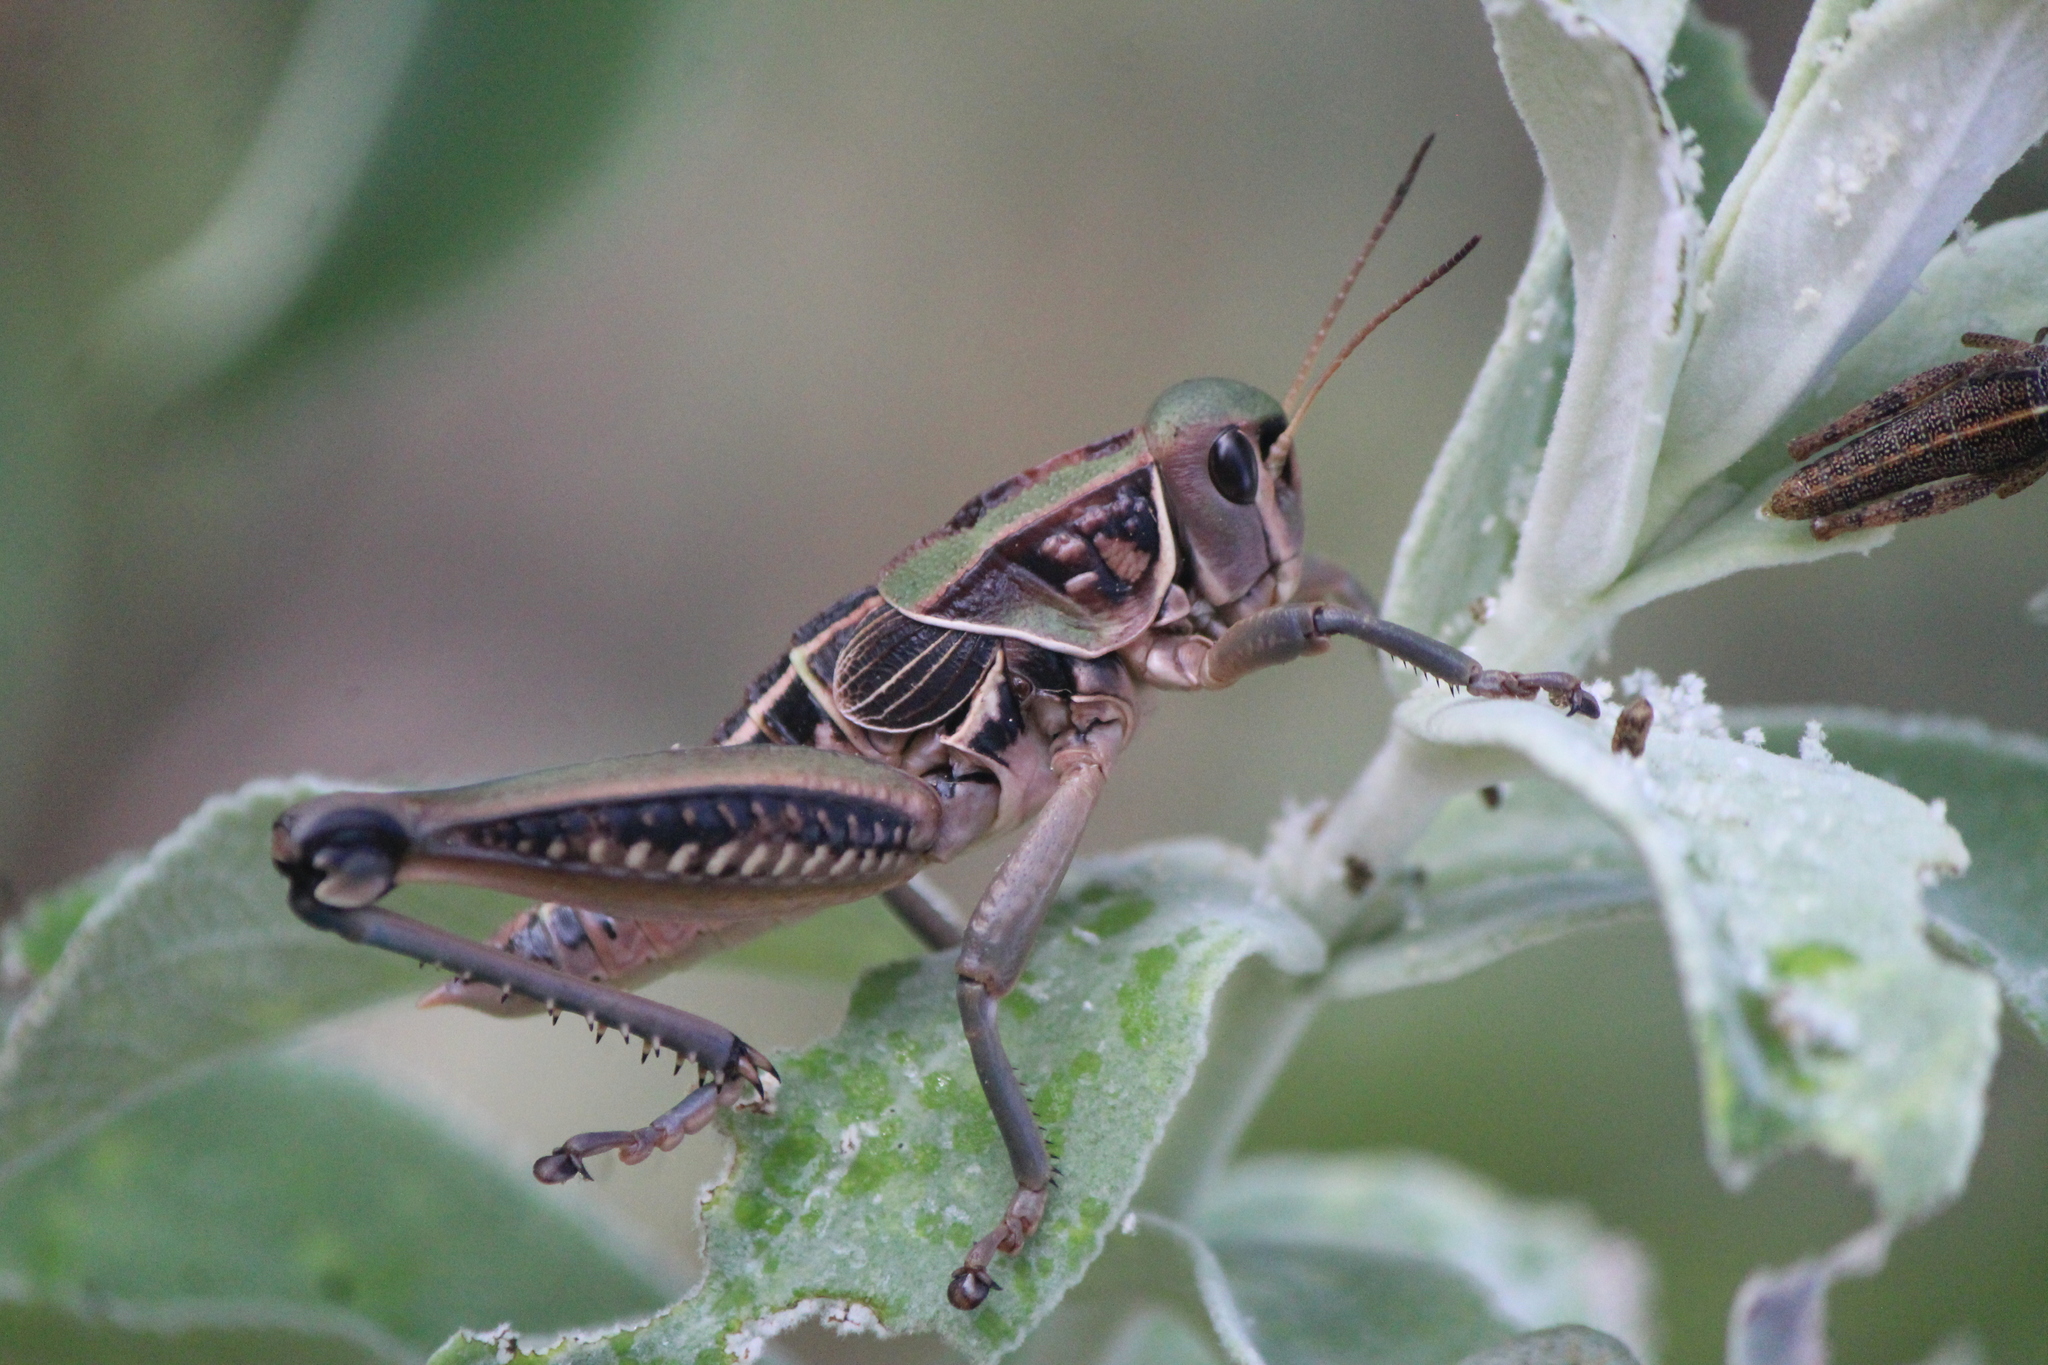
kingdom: Animalia
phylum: Arthropoda
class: Insecta
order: Orthoptera
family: Romaleidae
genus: Brachystola
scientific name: Brachystola mexicana
